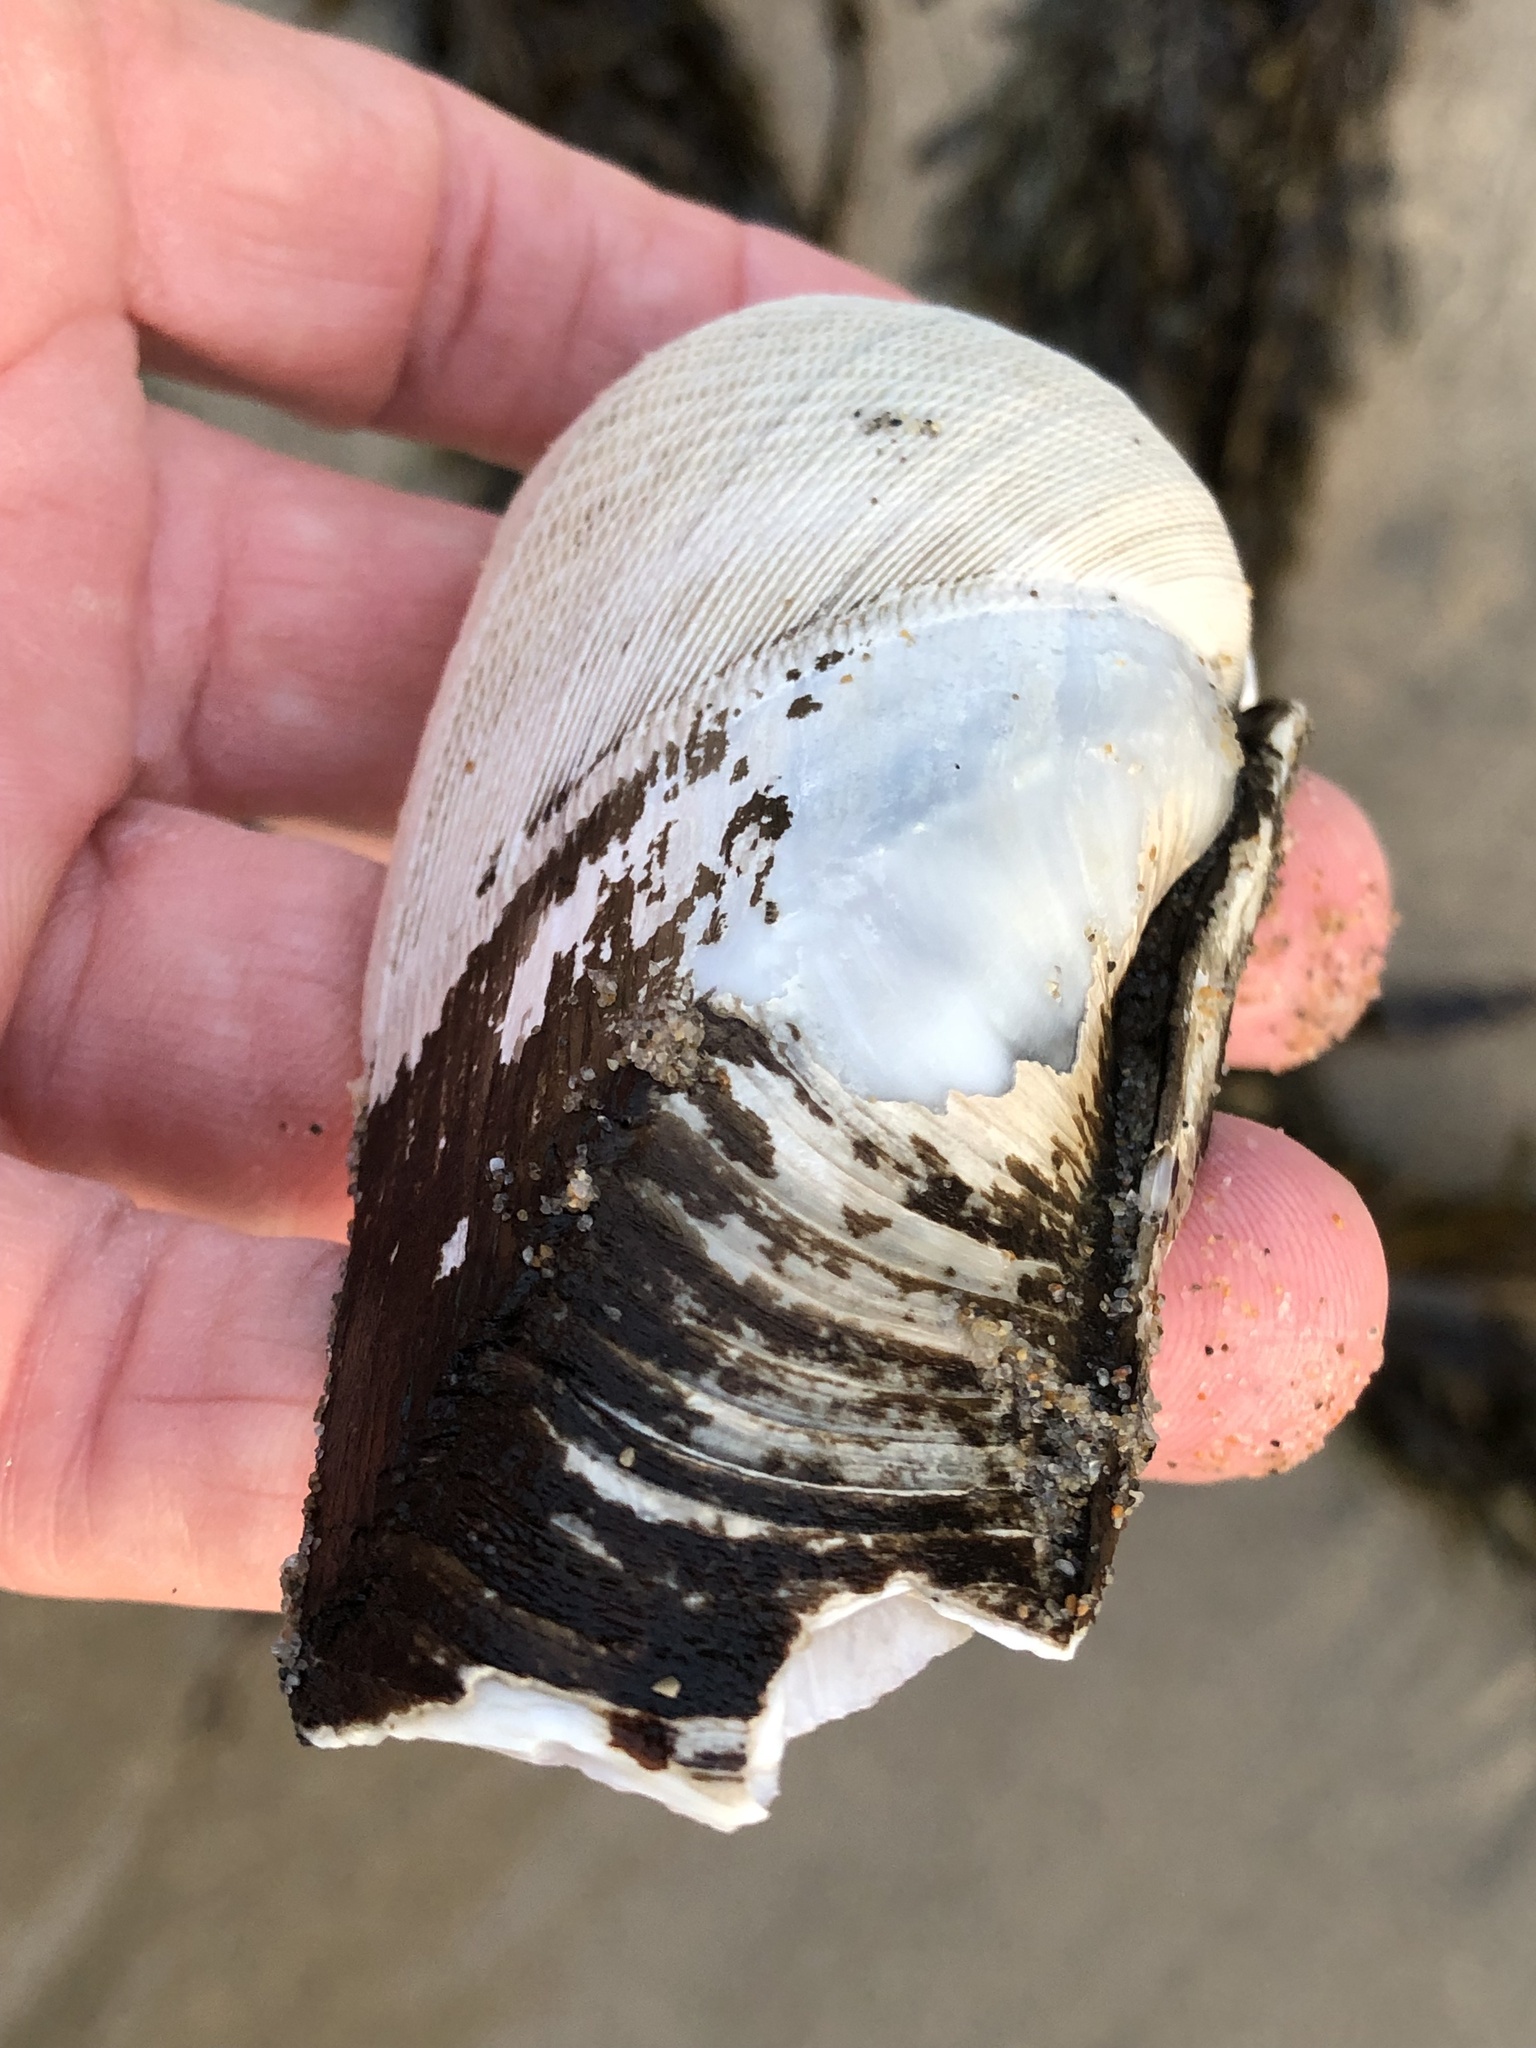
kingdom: Animalia
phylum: Mollusca
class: Bivalvia
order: Myida
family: Pholadidae
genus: Parapholas
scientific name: Parapholas californica
